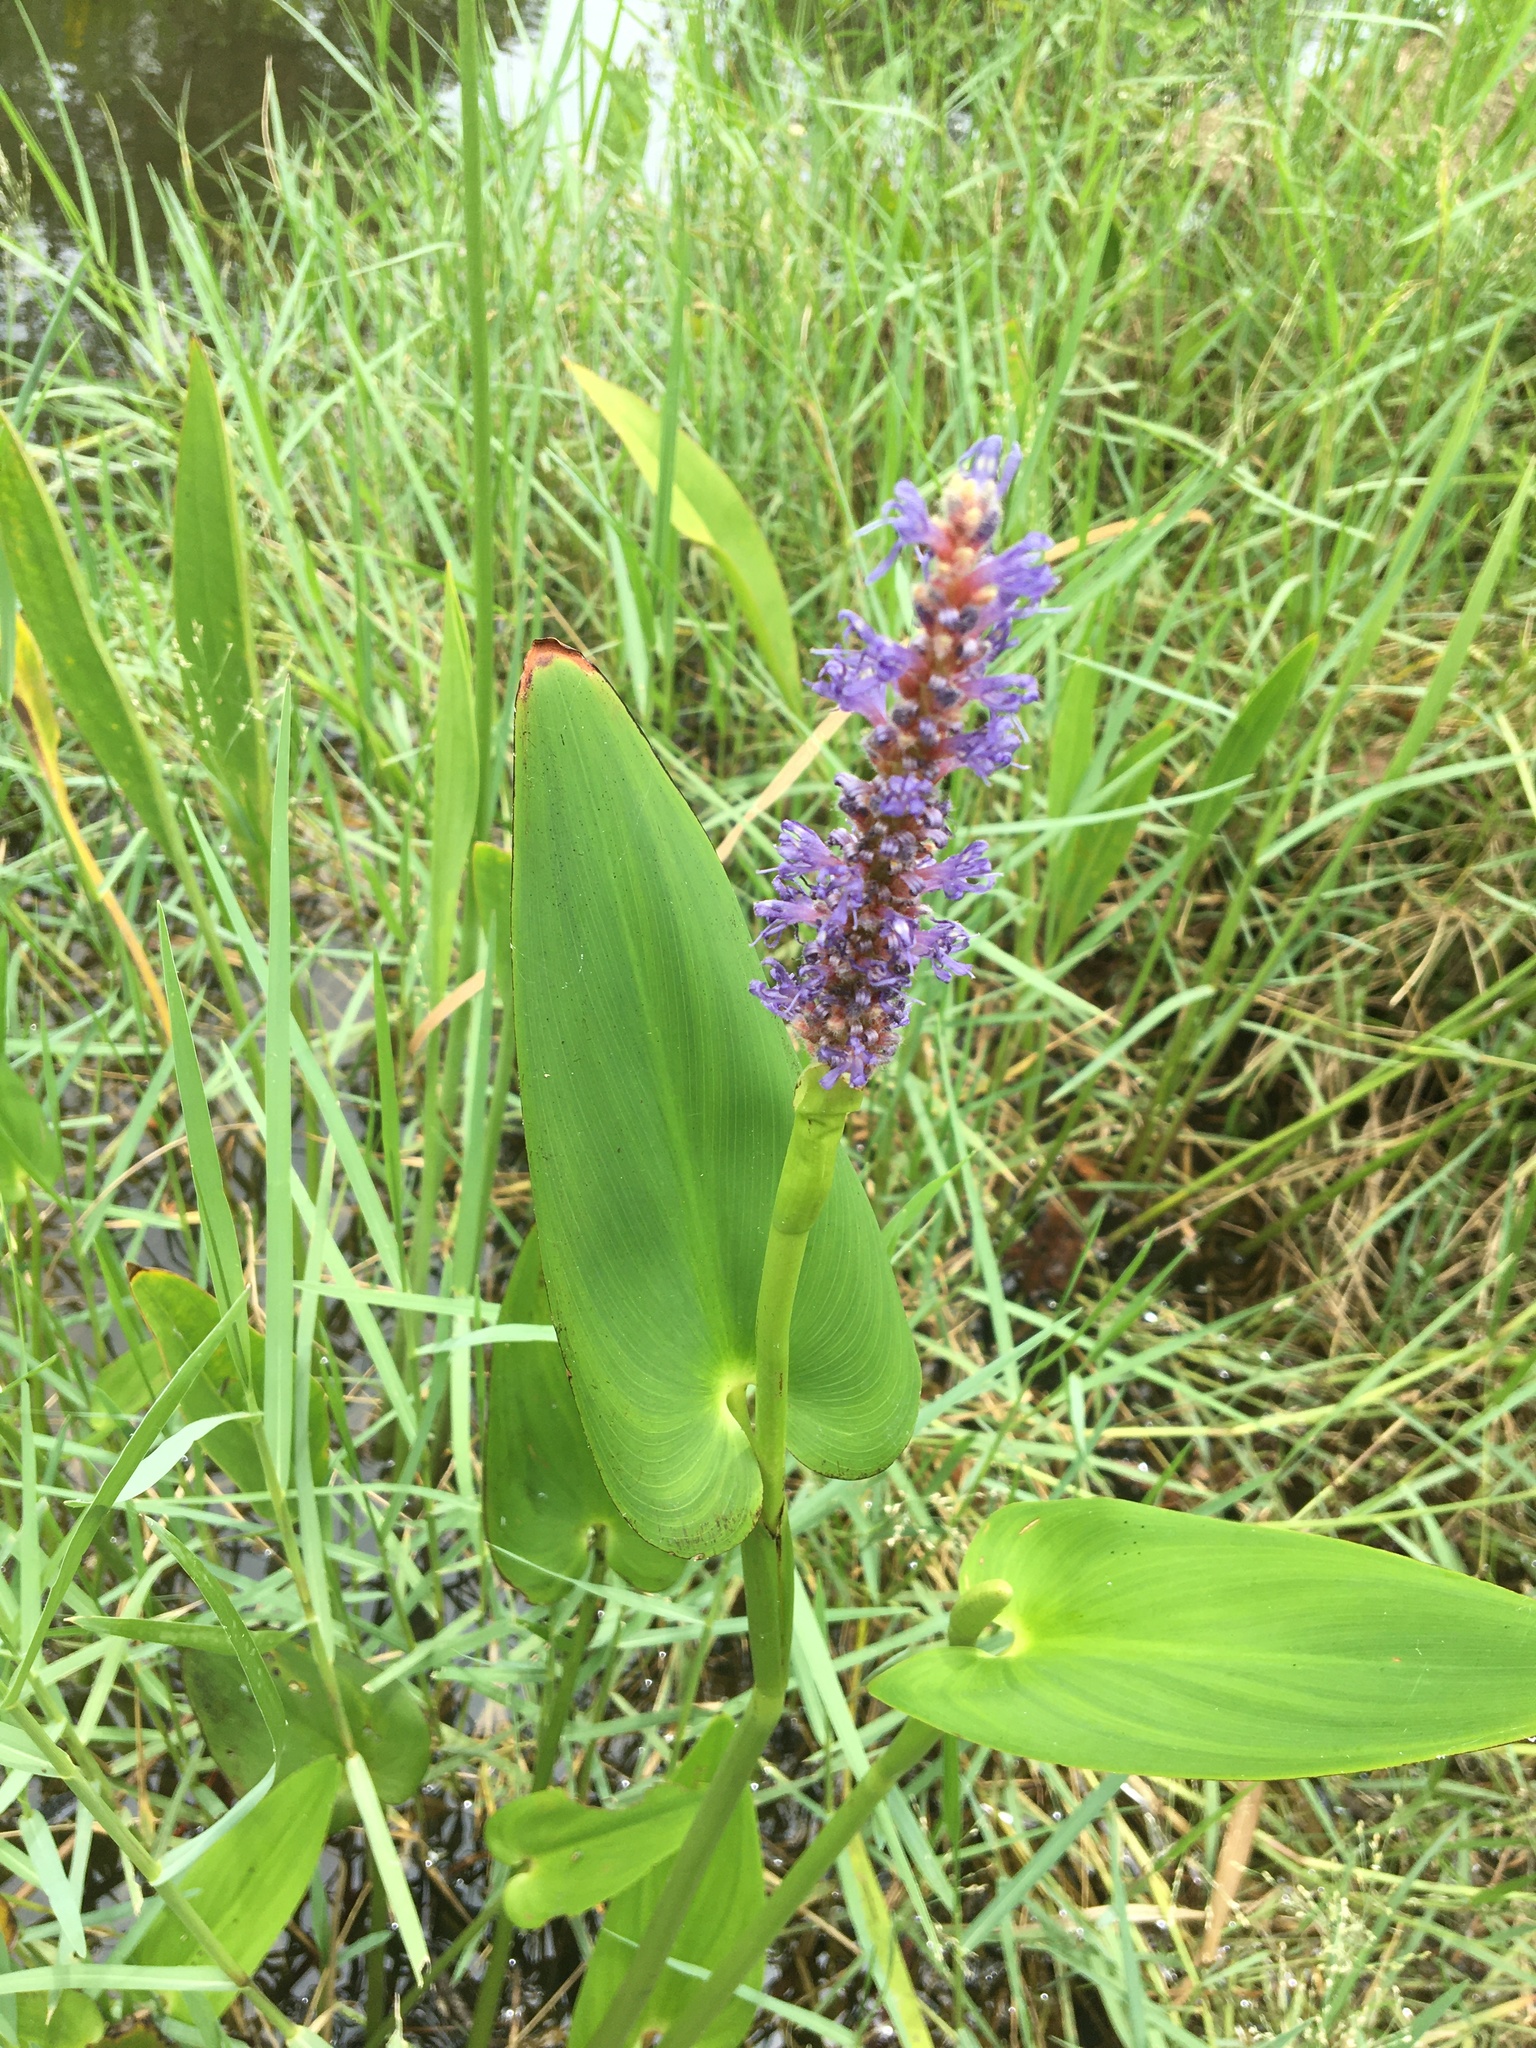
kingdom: Plantae
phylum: Tracheophyta
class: Liliopsida
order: Commelinales
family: Pontederiaceae
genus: Pontederia
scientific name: Pontederia cordata
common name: Pickerelweed
